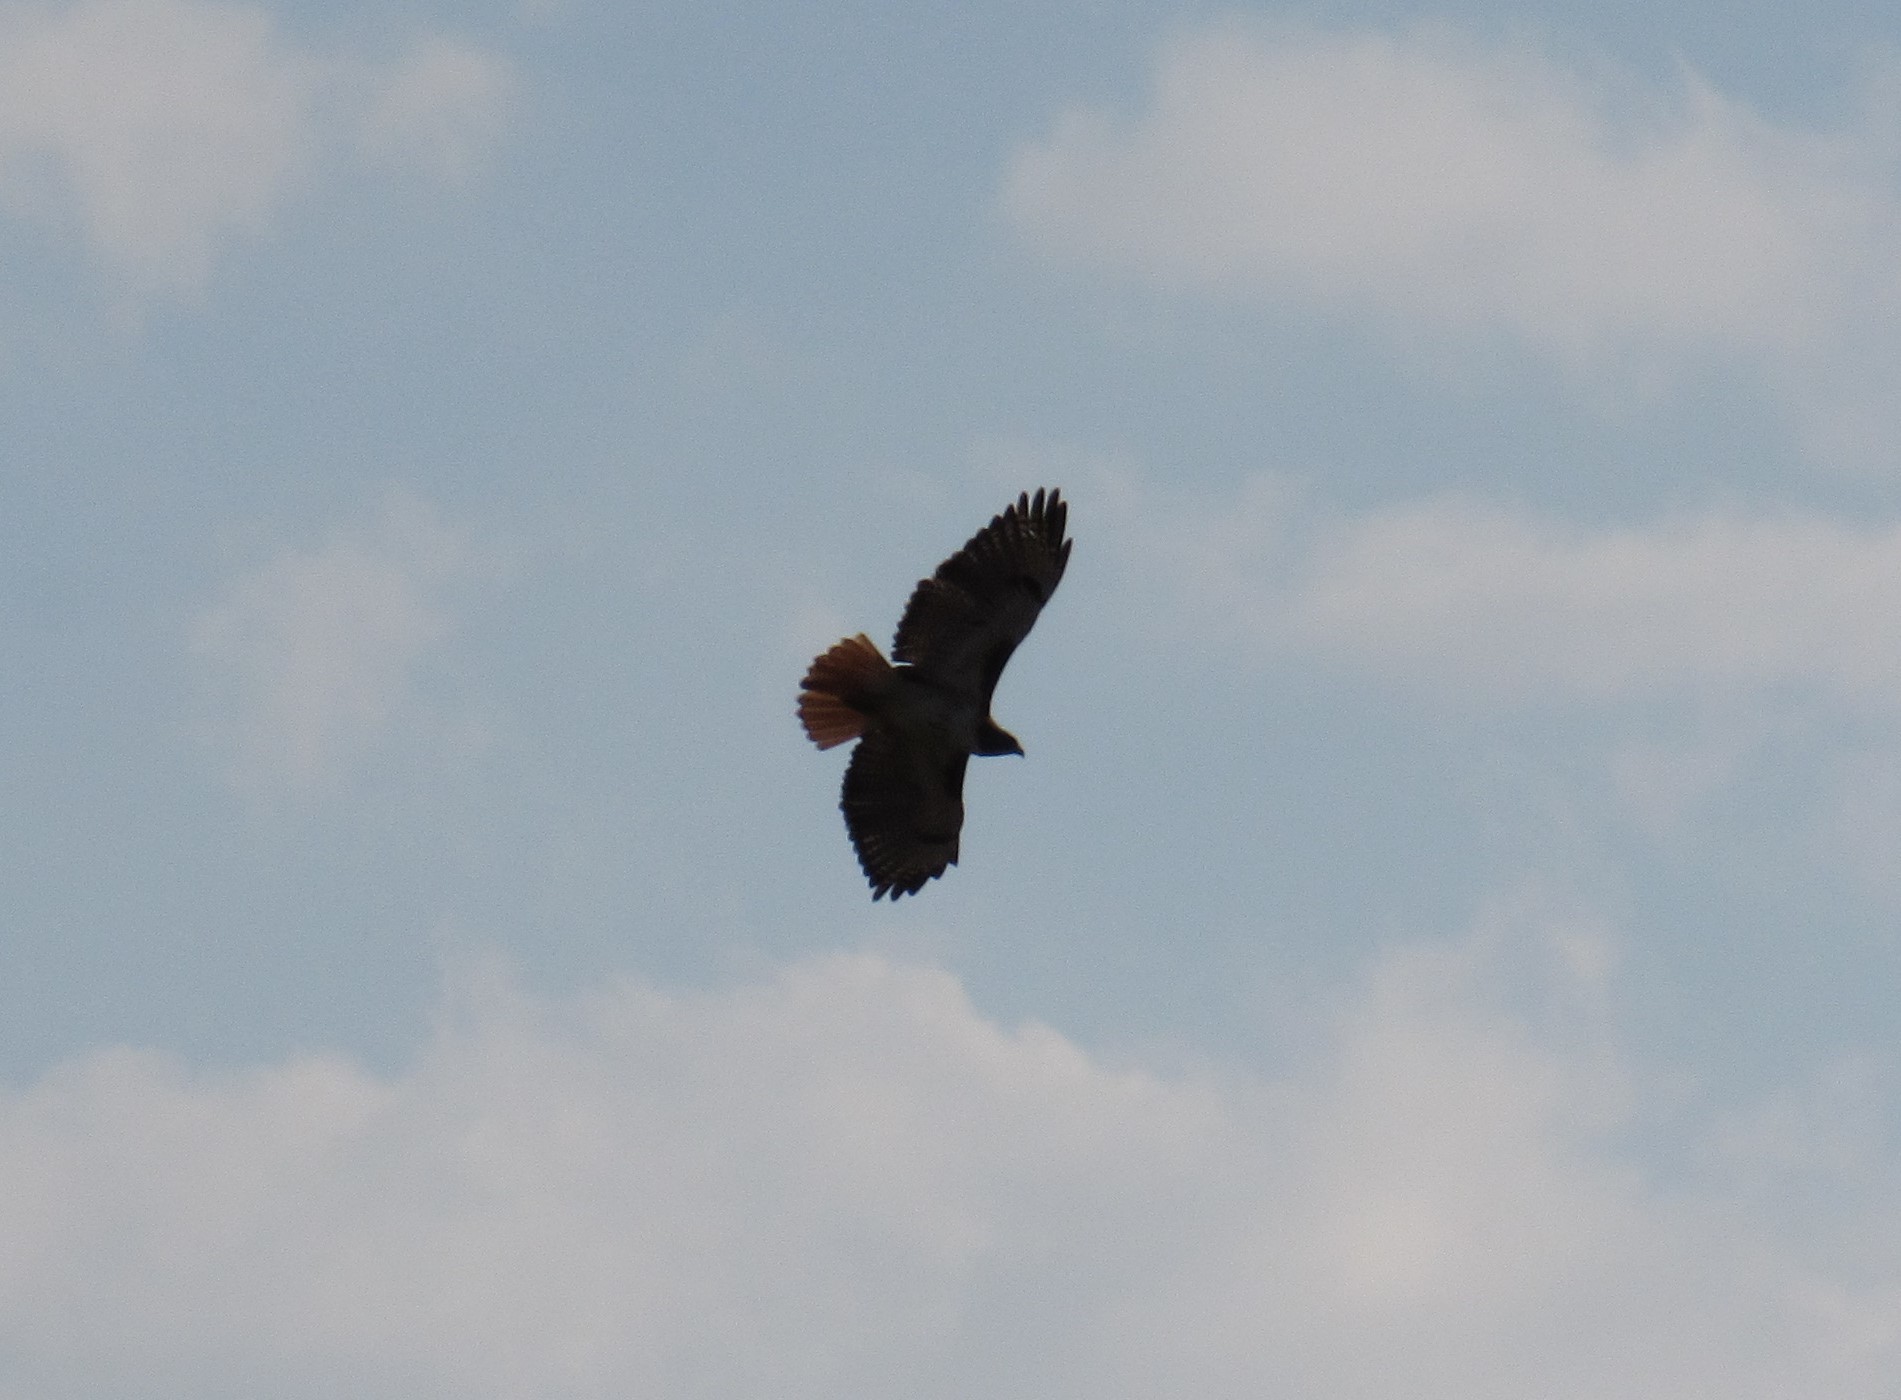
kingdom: Animalia
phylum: Chordata
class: Aves
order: Accipitriformes
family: Accipitridae
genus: Buteo
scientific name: Buteo jamaicensis
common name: Red-tailed hawk
